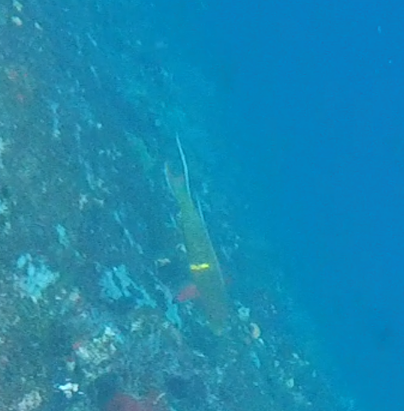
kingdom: Animalia
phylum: Chordata
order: Perciformes
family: Labridae
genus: Bodianus
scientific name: Bodianus diplotaenia
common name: Mexican hogfish
